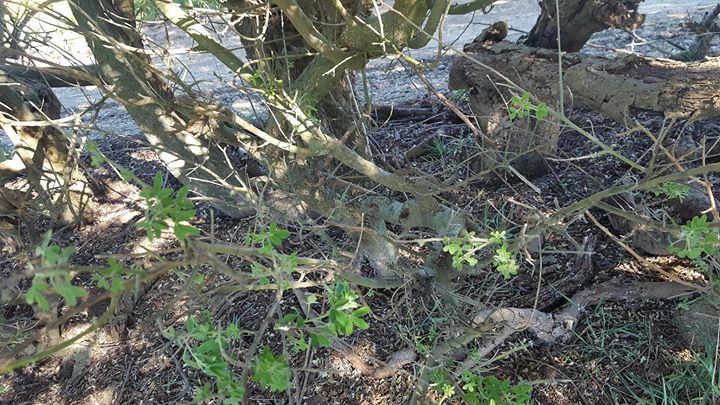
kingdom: Plantae
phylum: Tracheophyta
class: Magnoliopsida
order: Fabales
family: Fabaceae
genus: Chamaecytisus
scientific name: Chamaecytisus prolifer
